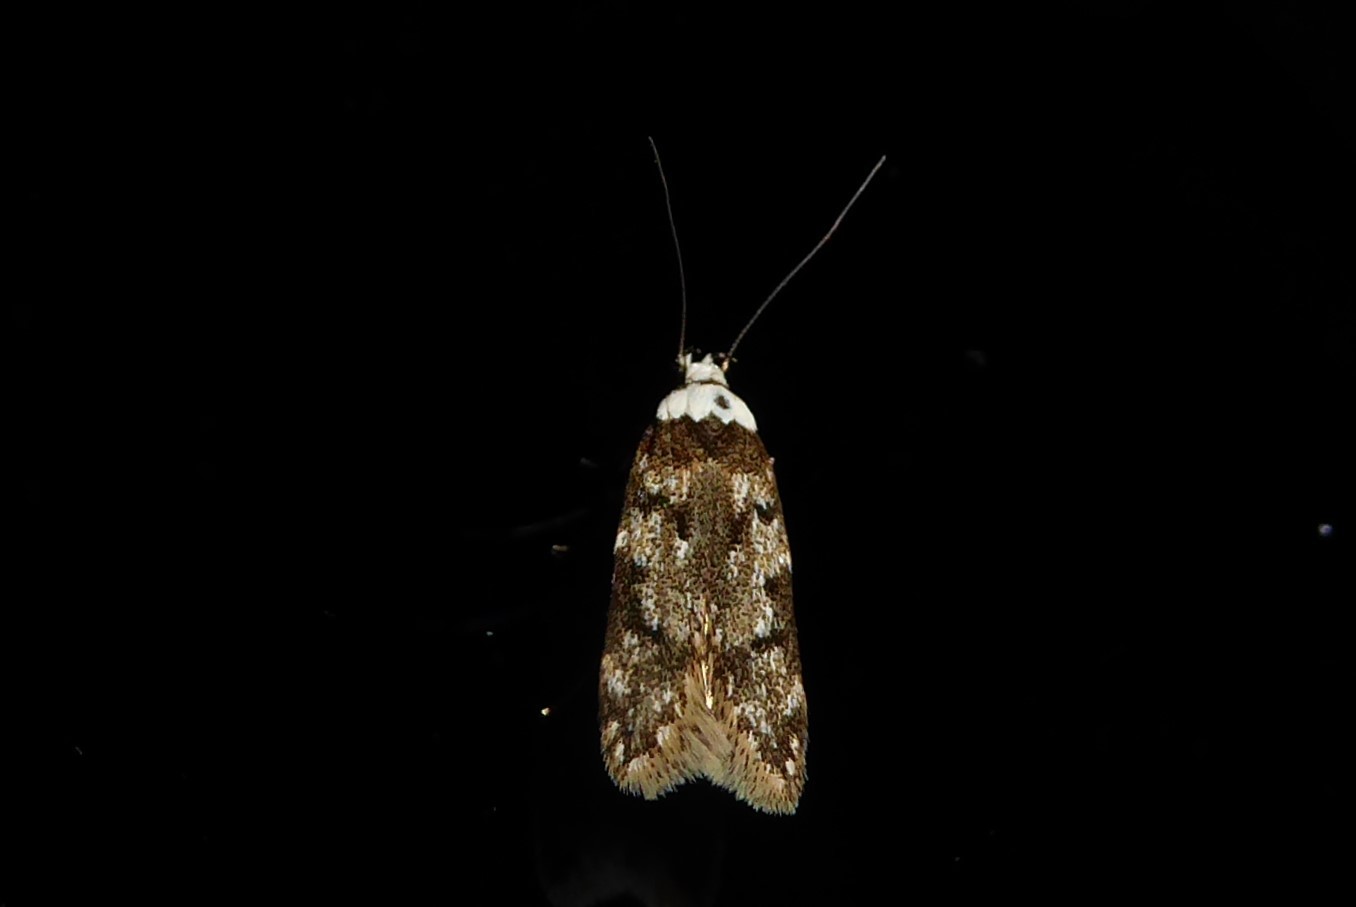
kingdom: Animalia
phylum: Arthropoda
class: Insecta
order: Lepidoptera
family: Oecophoridae
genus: Endrosis
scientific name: Endrosis sarcitrella
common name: White-shouldered house moth
